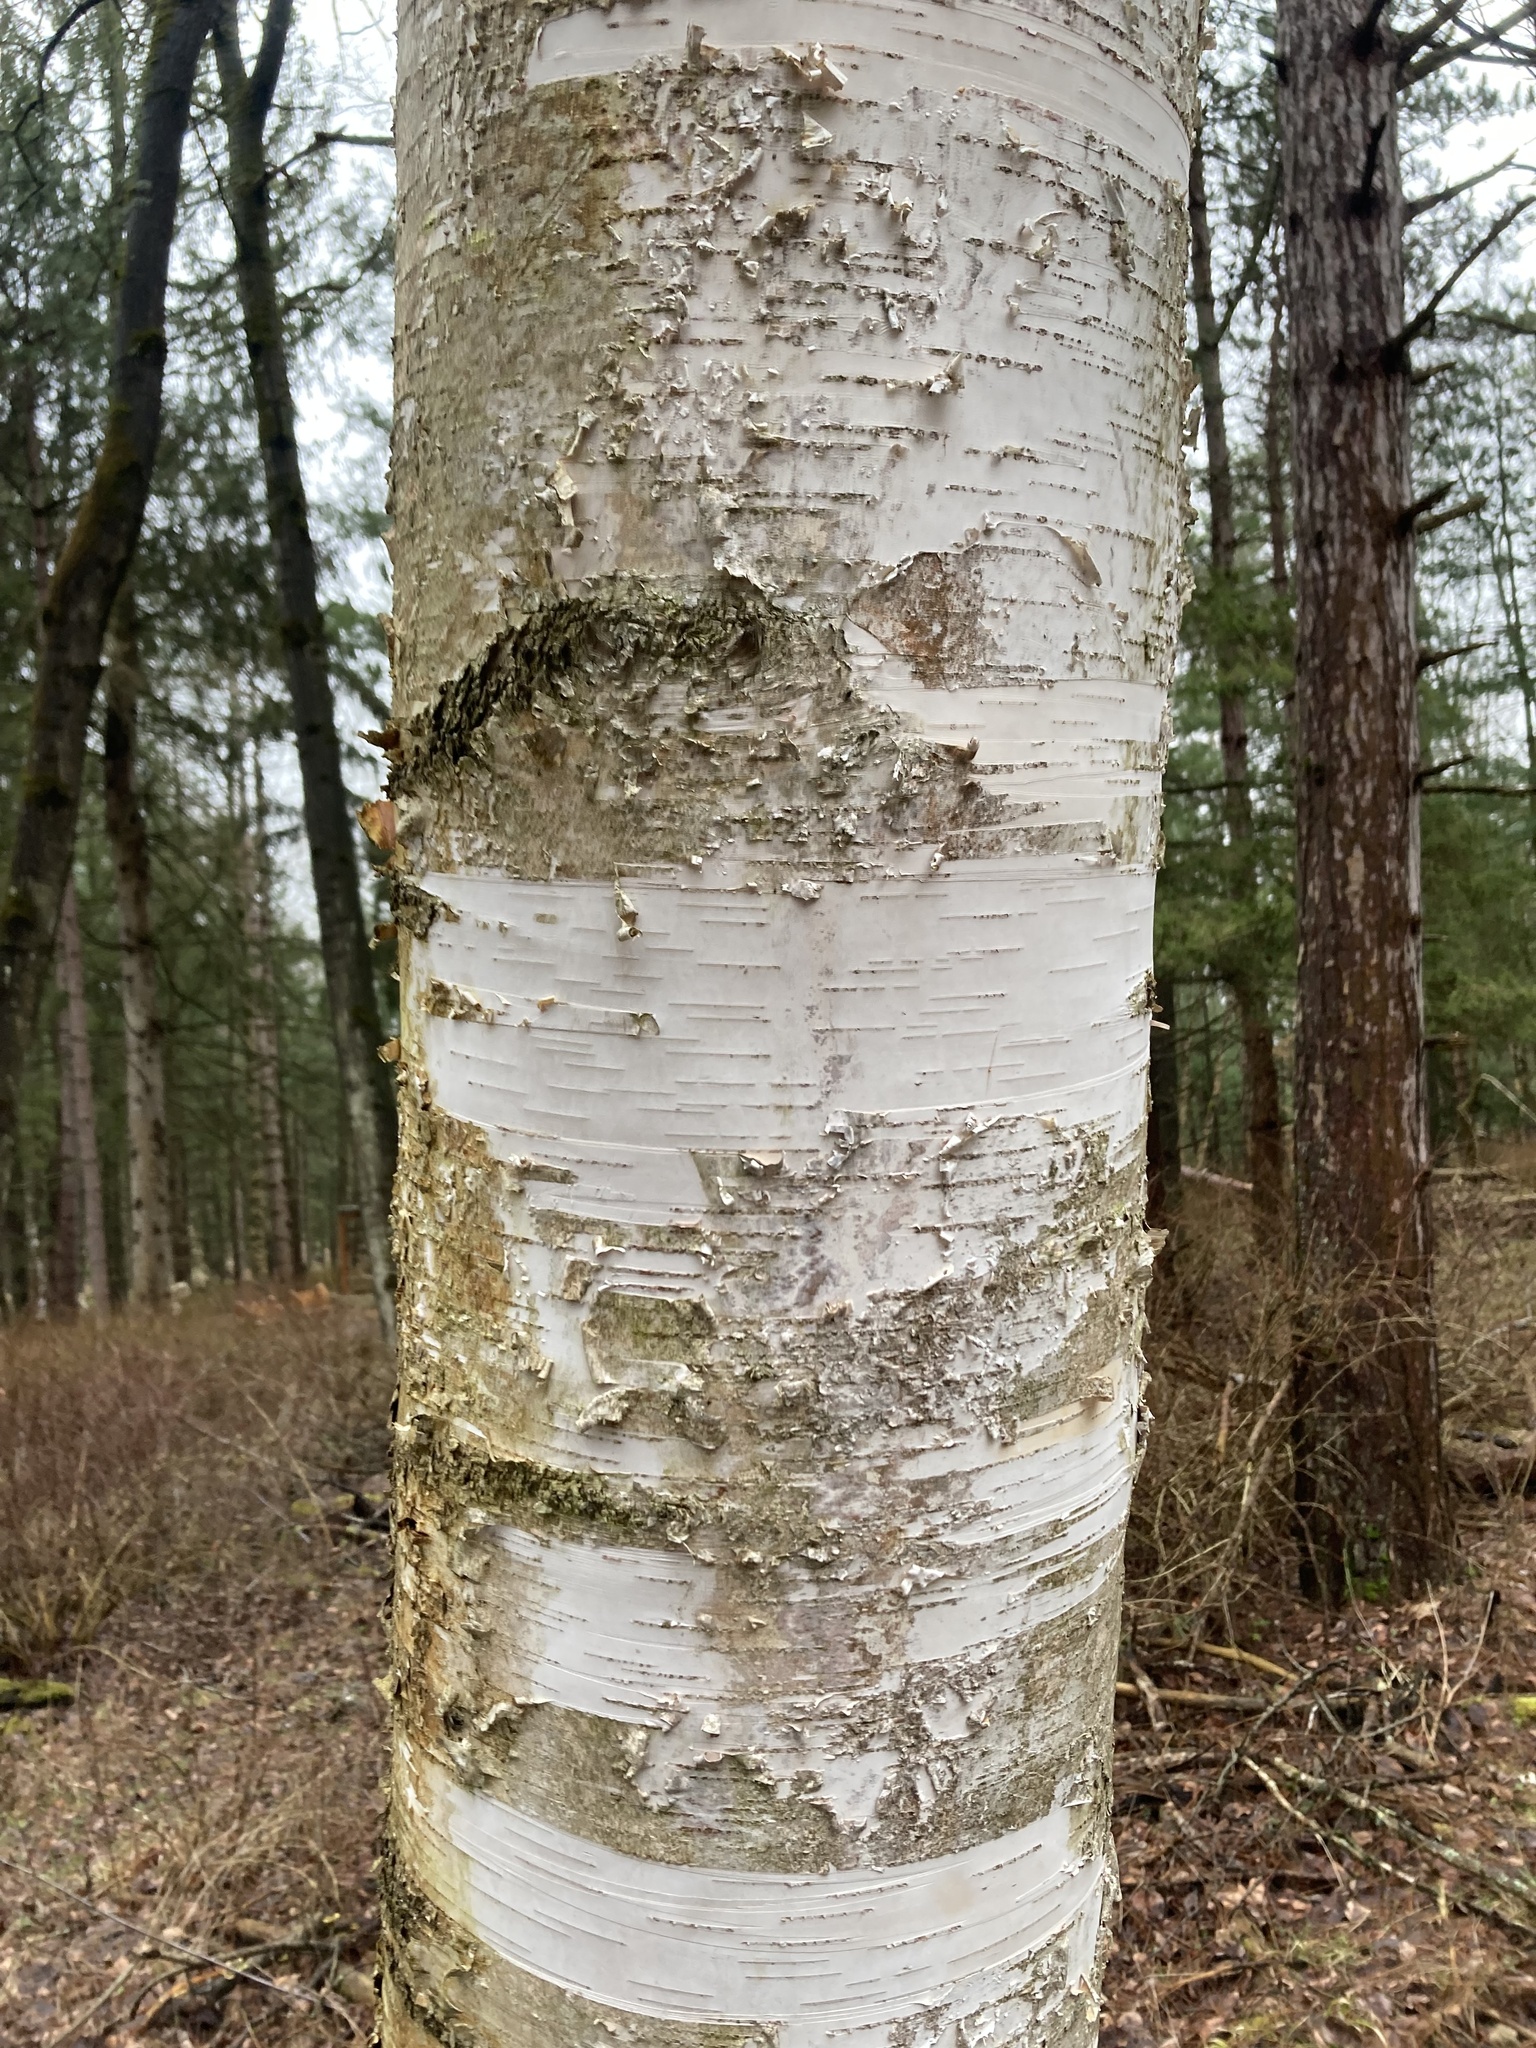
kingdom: Plantae
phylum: Tracheophyta
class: Magnoliopsida
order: Fagales
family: Betulaceae
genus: Betula
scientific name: Betula papyrifera
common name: Paper birch
